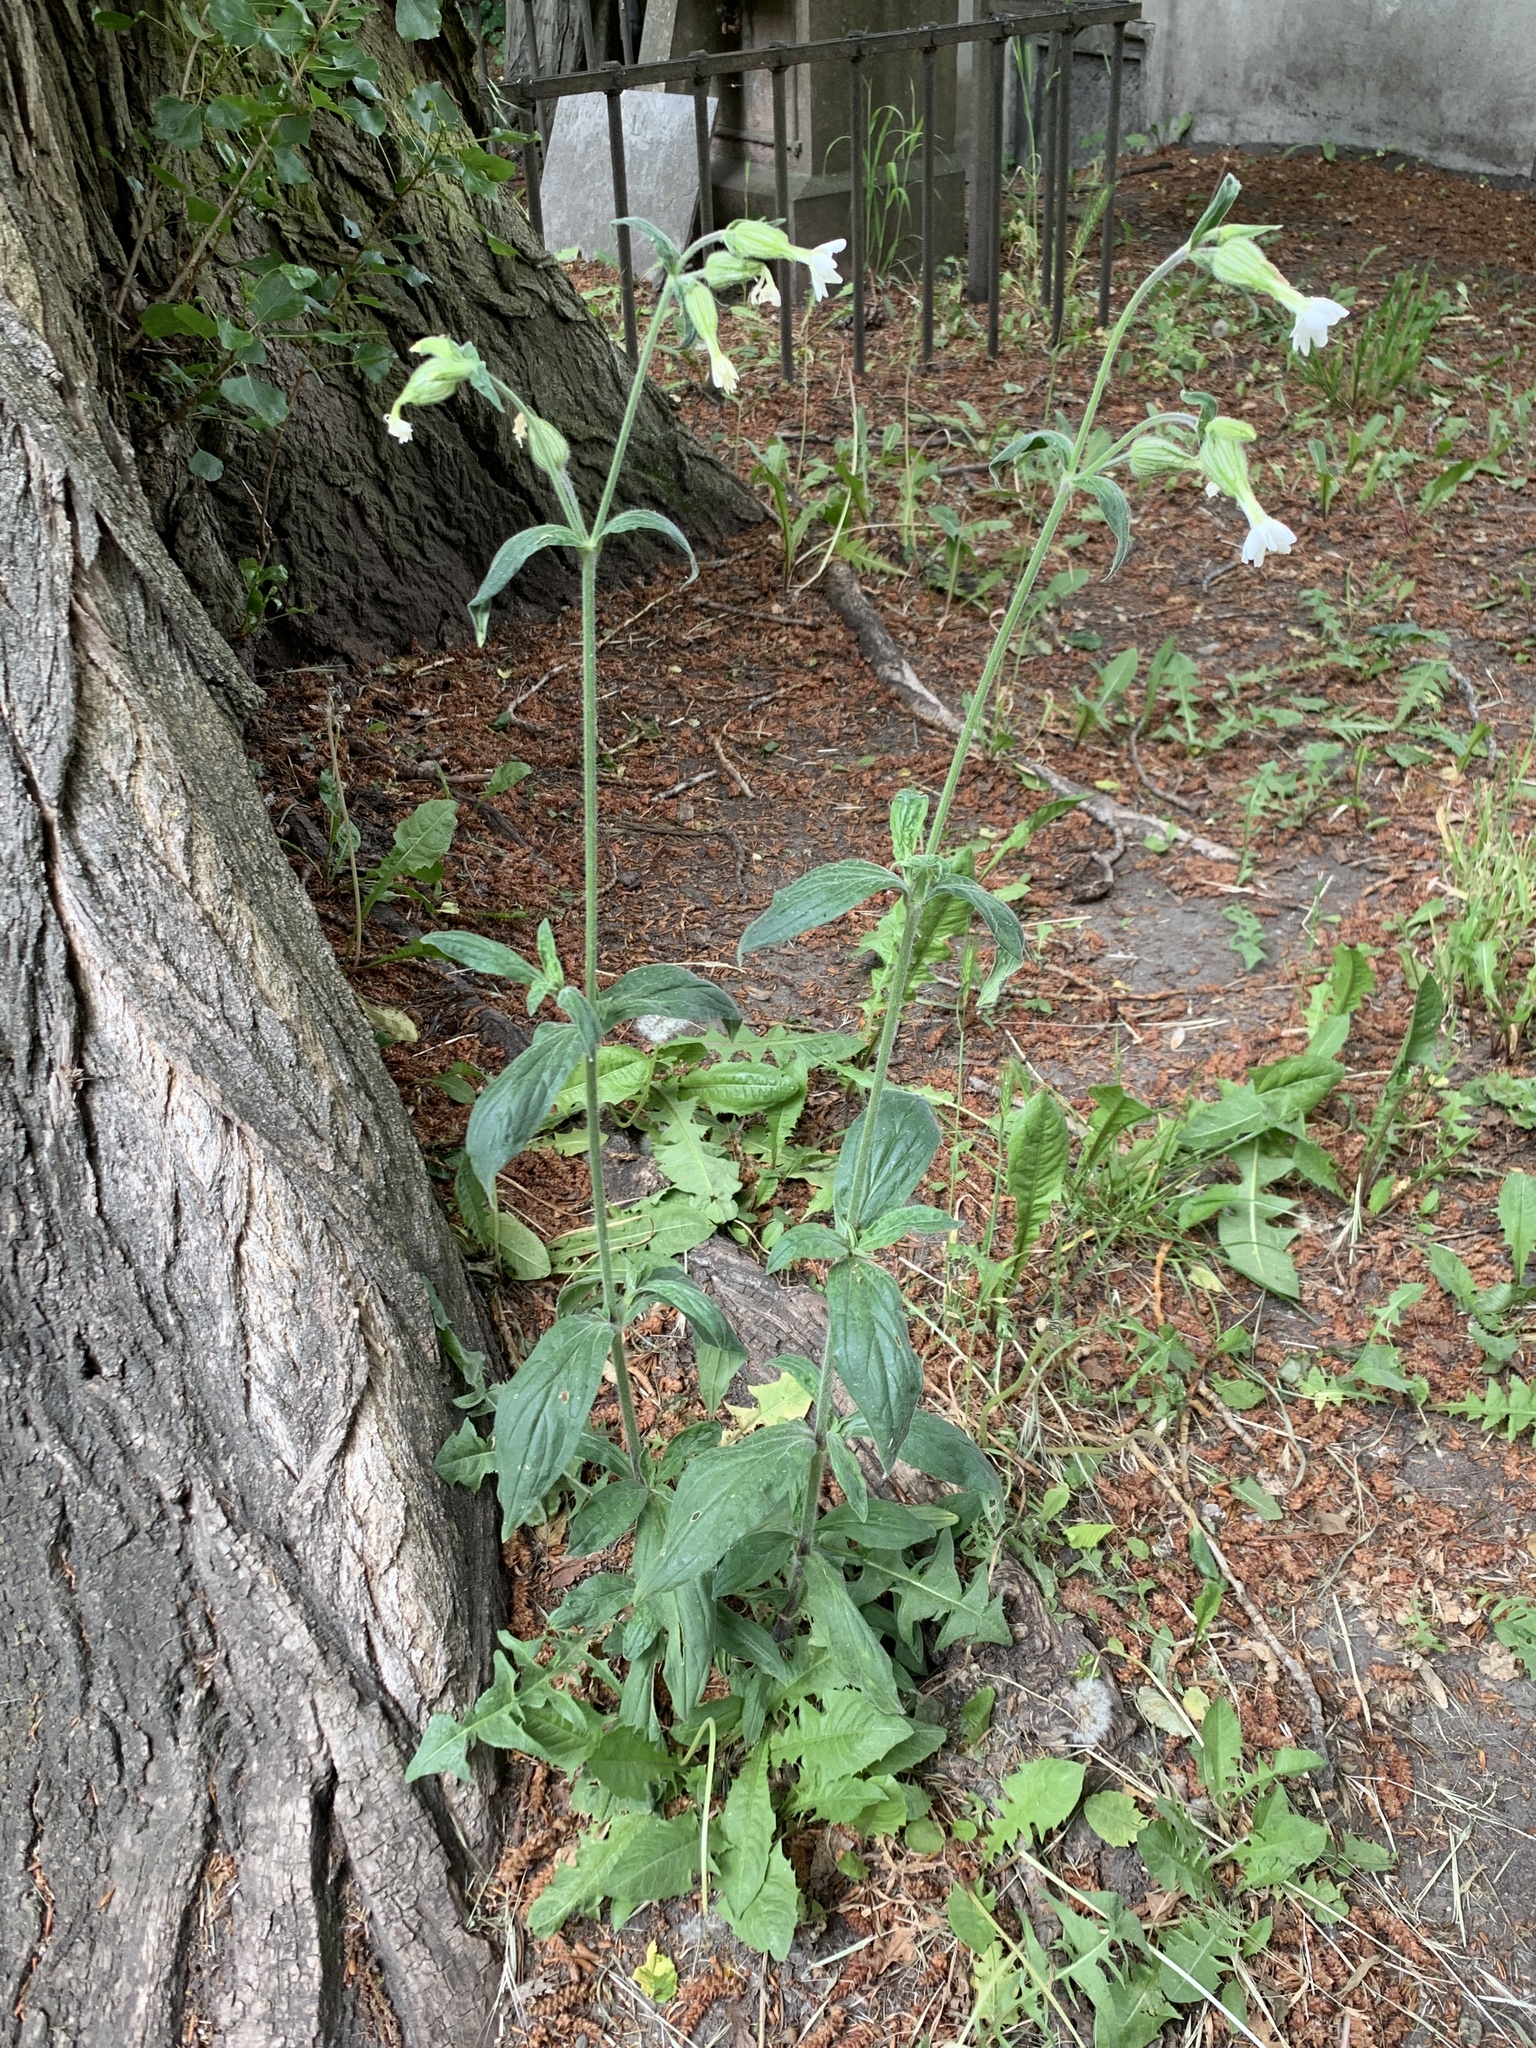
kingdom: Plantae
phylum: Tracheophyta
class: Magnoliopsida
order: Caryophyllales
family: Caryophyllaceae
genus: Silene
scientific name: Silene latifolia
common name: White campion
